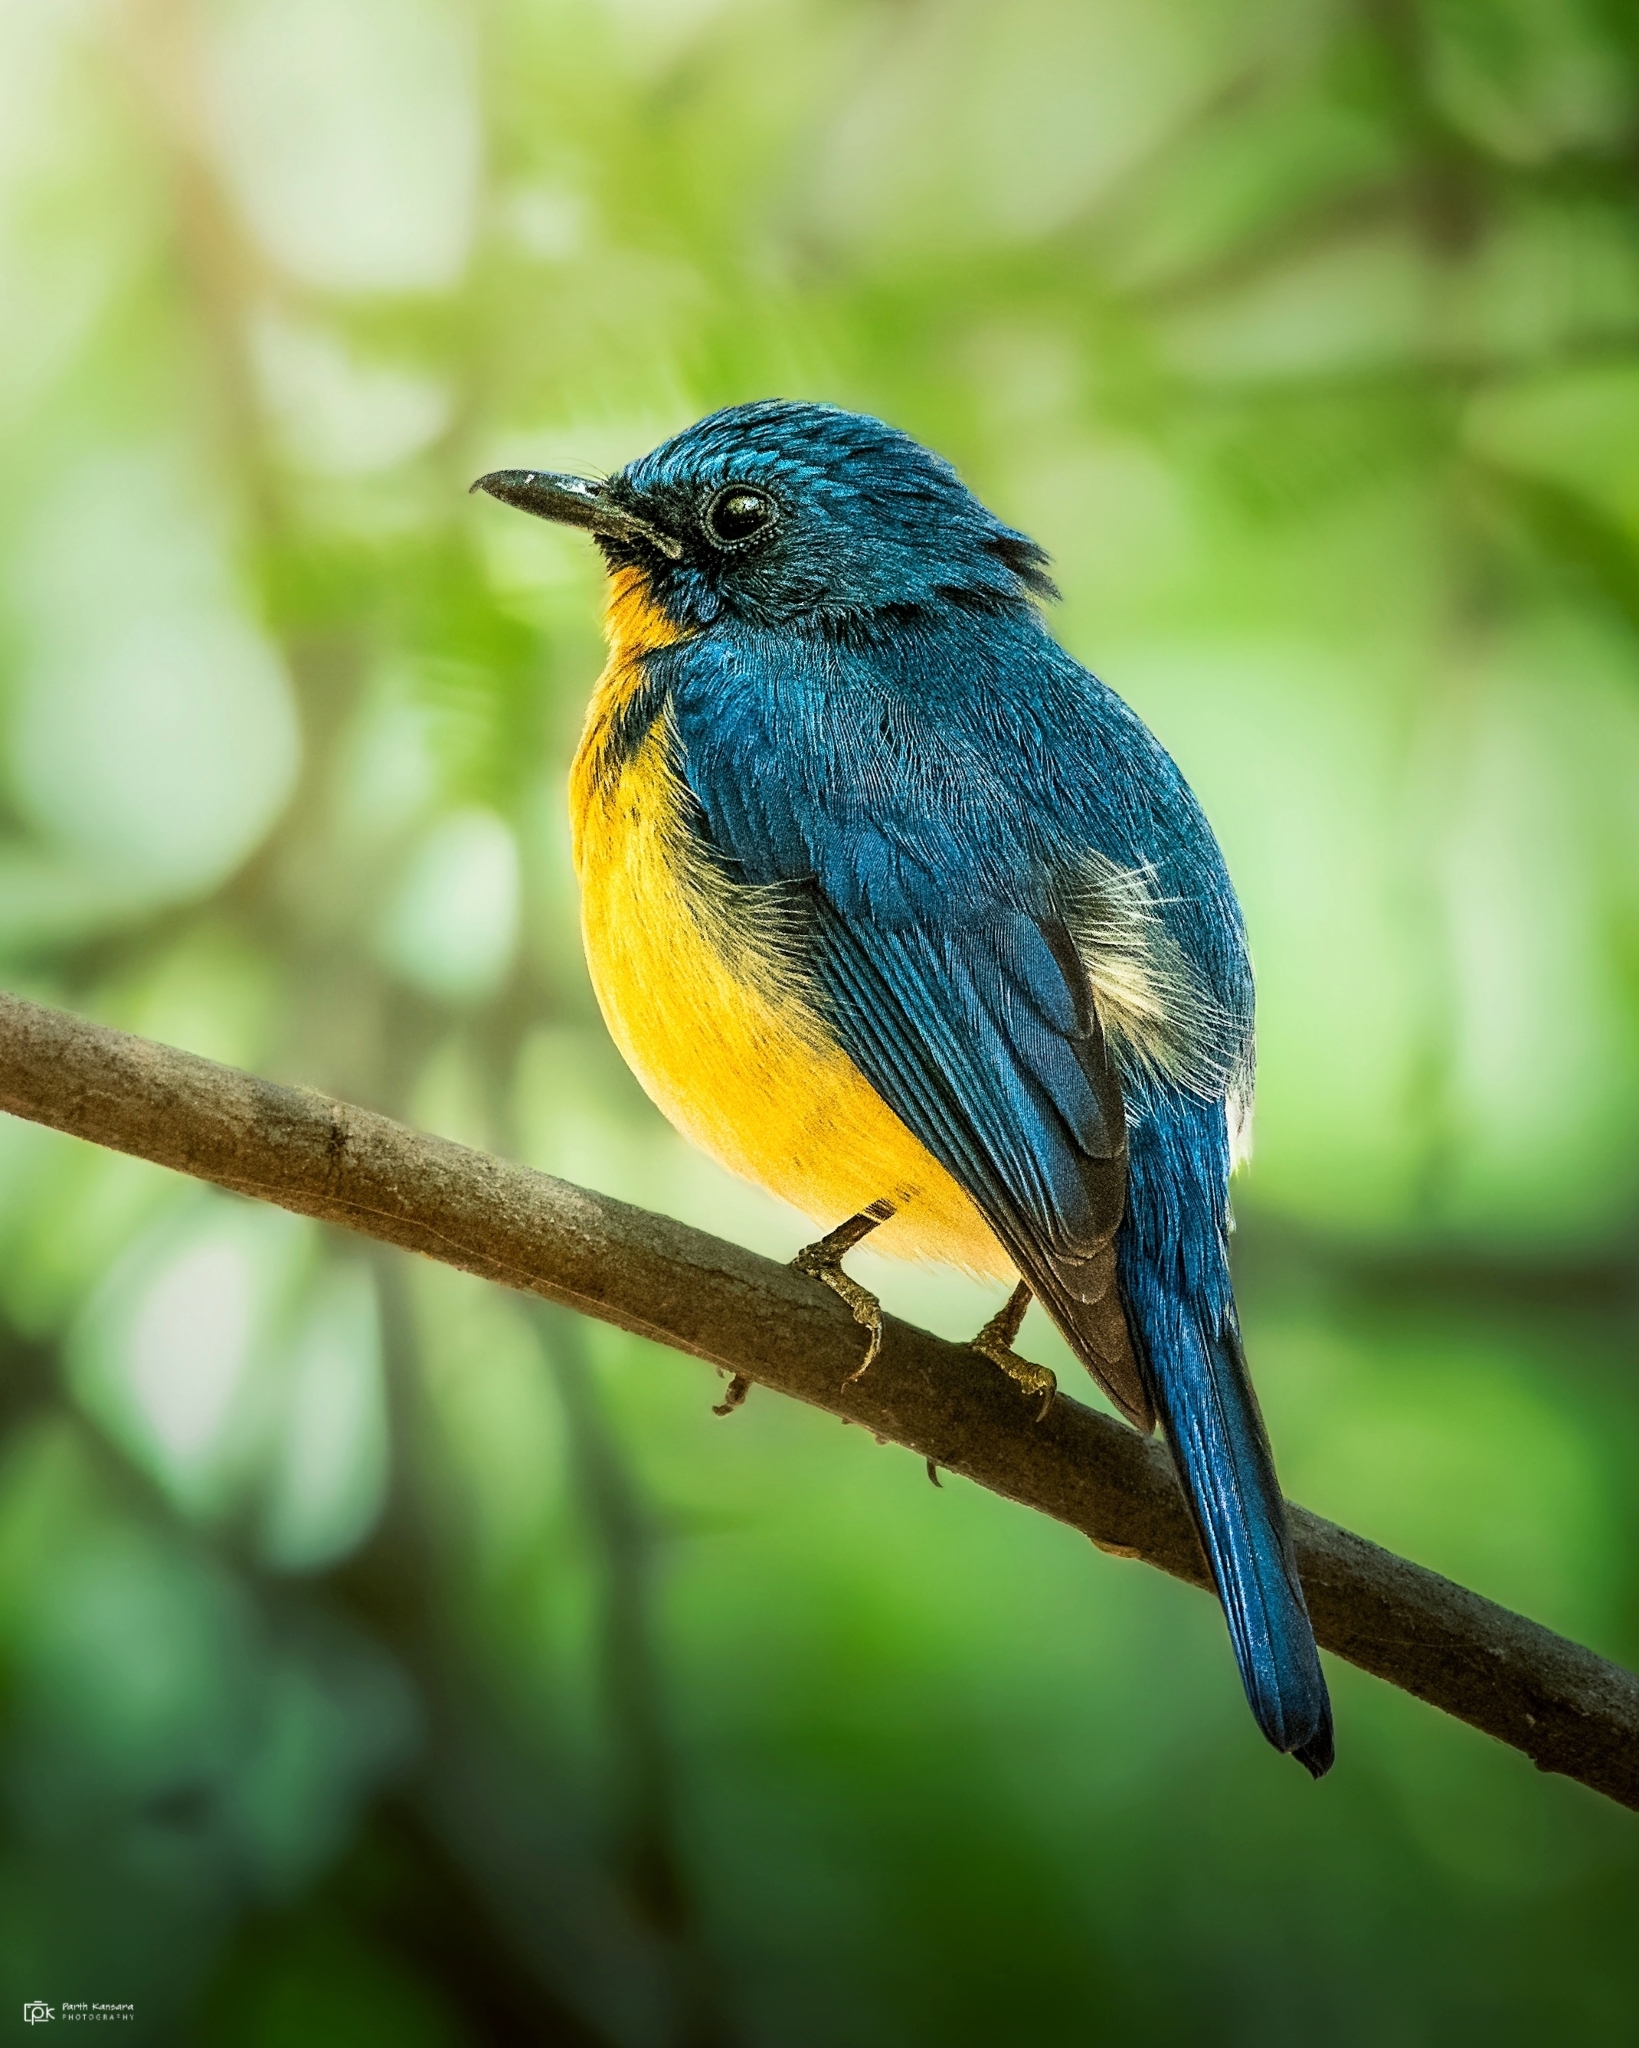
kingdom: Animalia
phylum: Chordata
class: Aves
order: Passeriformes
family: Muscicapidae
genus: Cyornis
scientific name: Cyornis tickelliae
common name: Tickell's blue flycatcher
